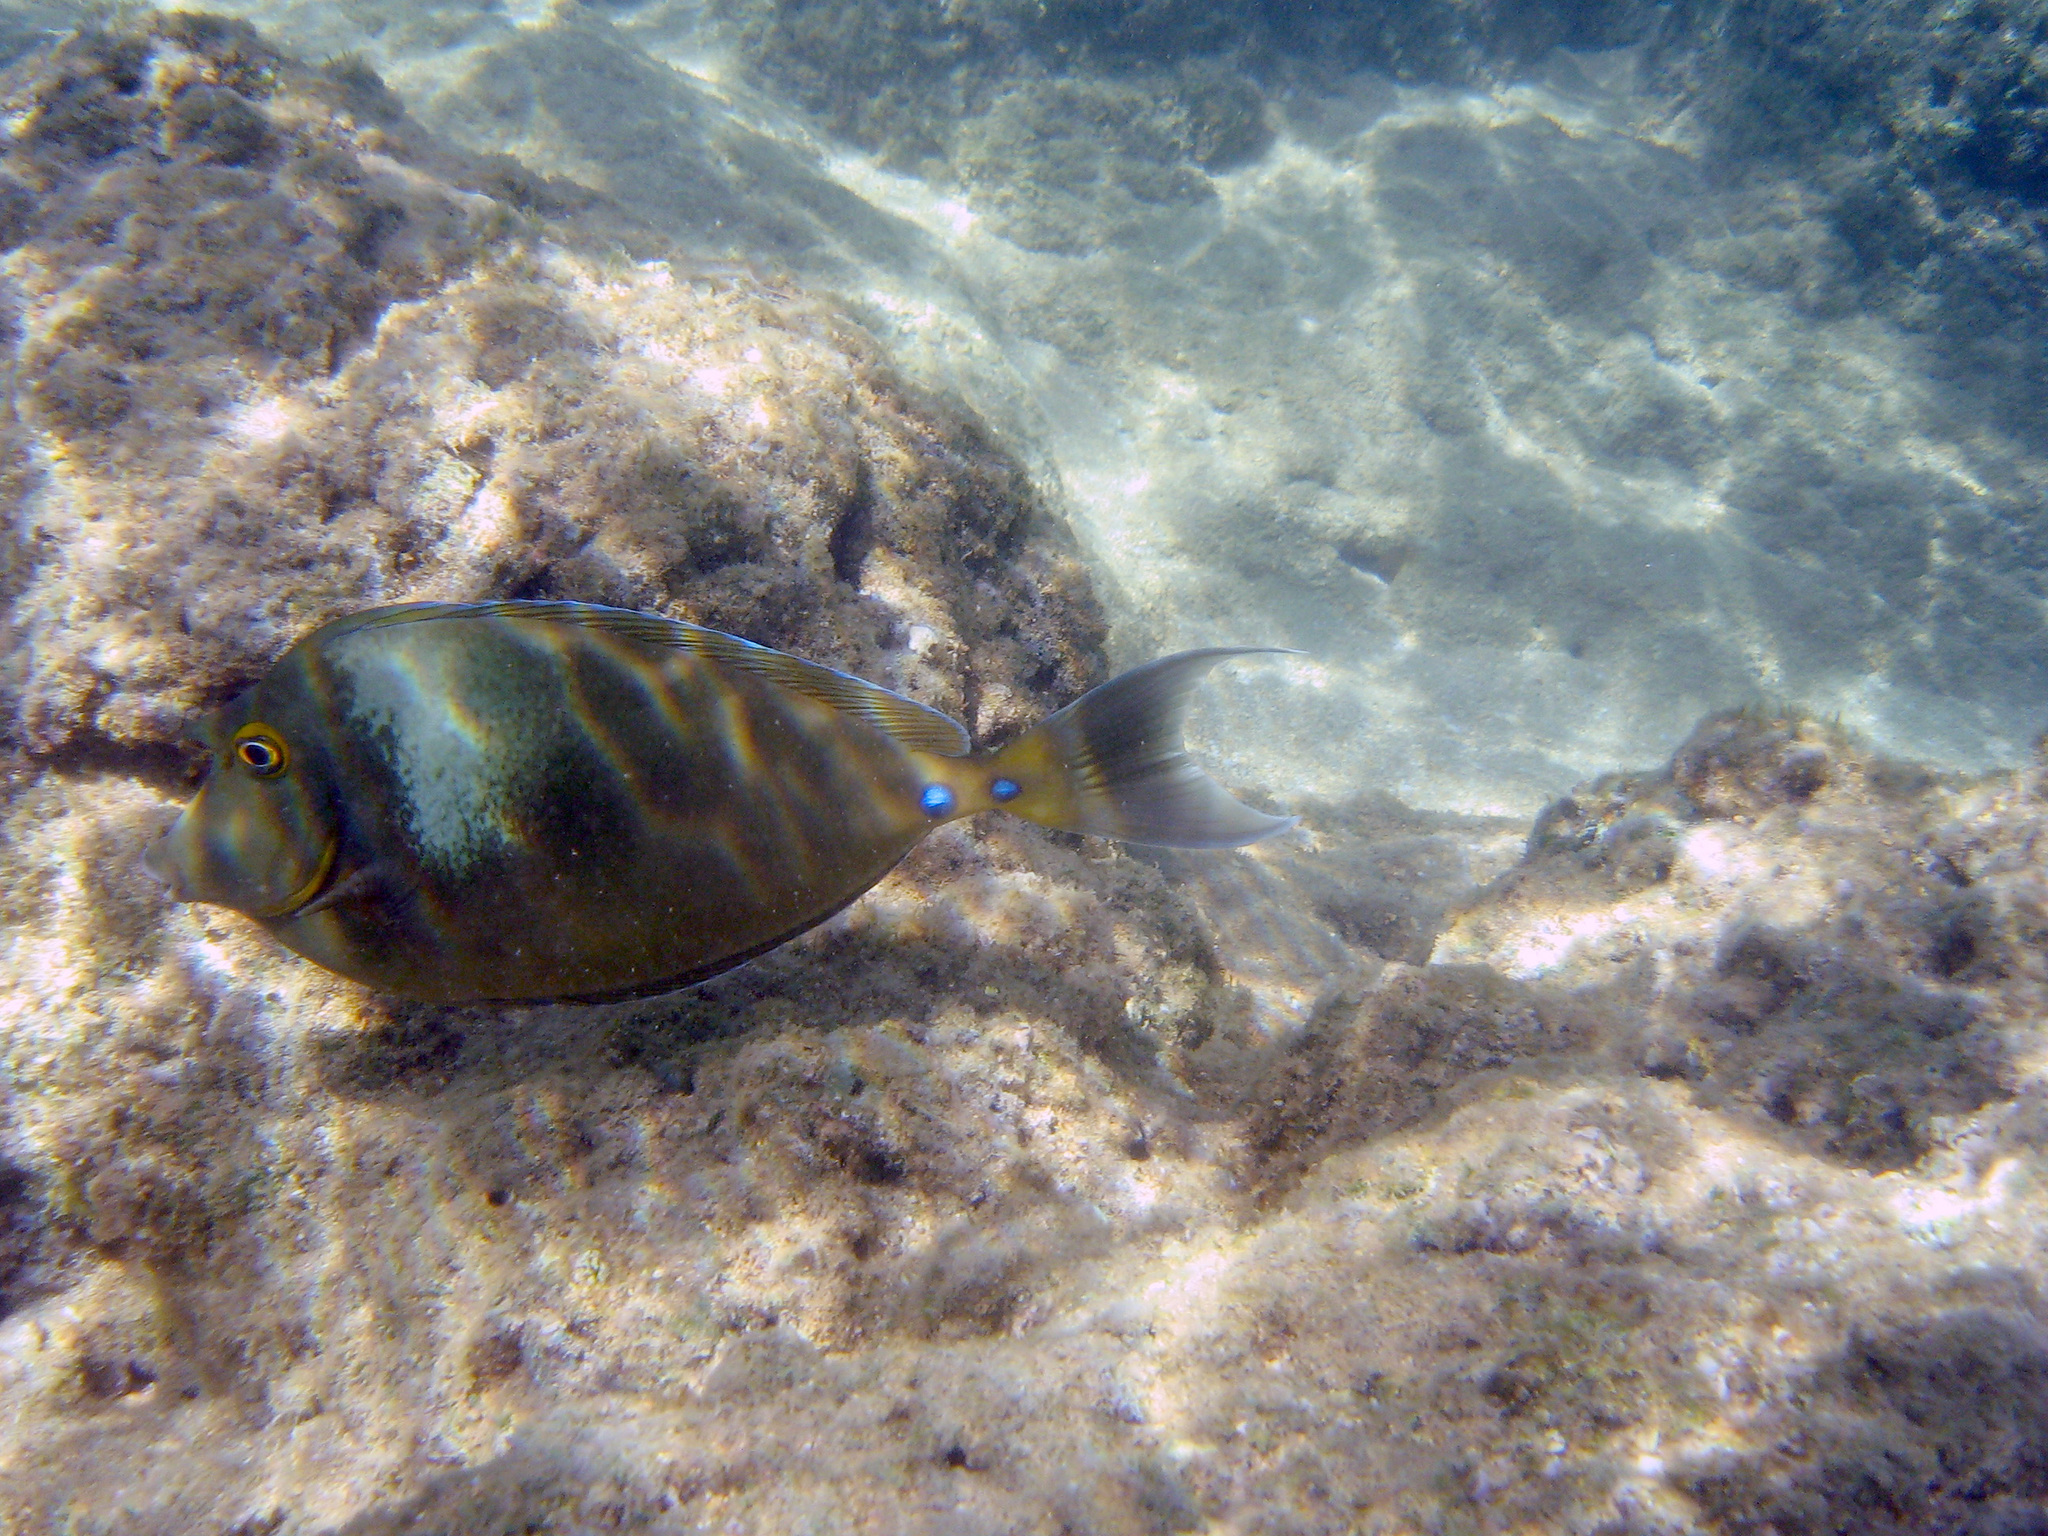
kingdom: Animalia
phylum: Chordata
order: Perciformes
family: Acanthuridae
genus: Naso
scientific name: Naso unicornis
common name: Bluespine unicornfish
